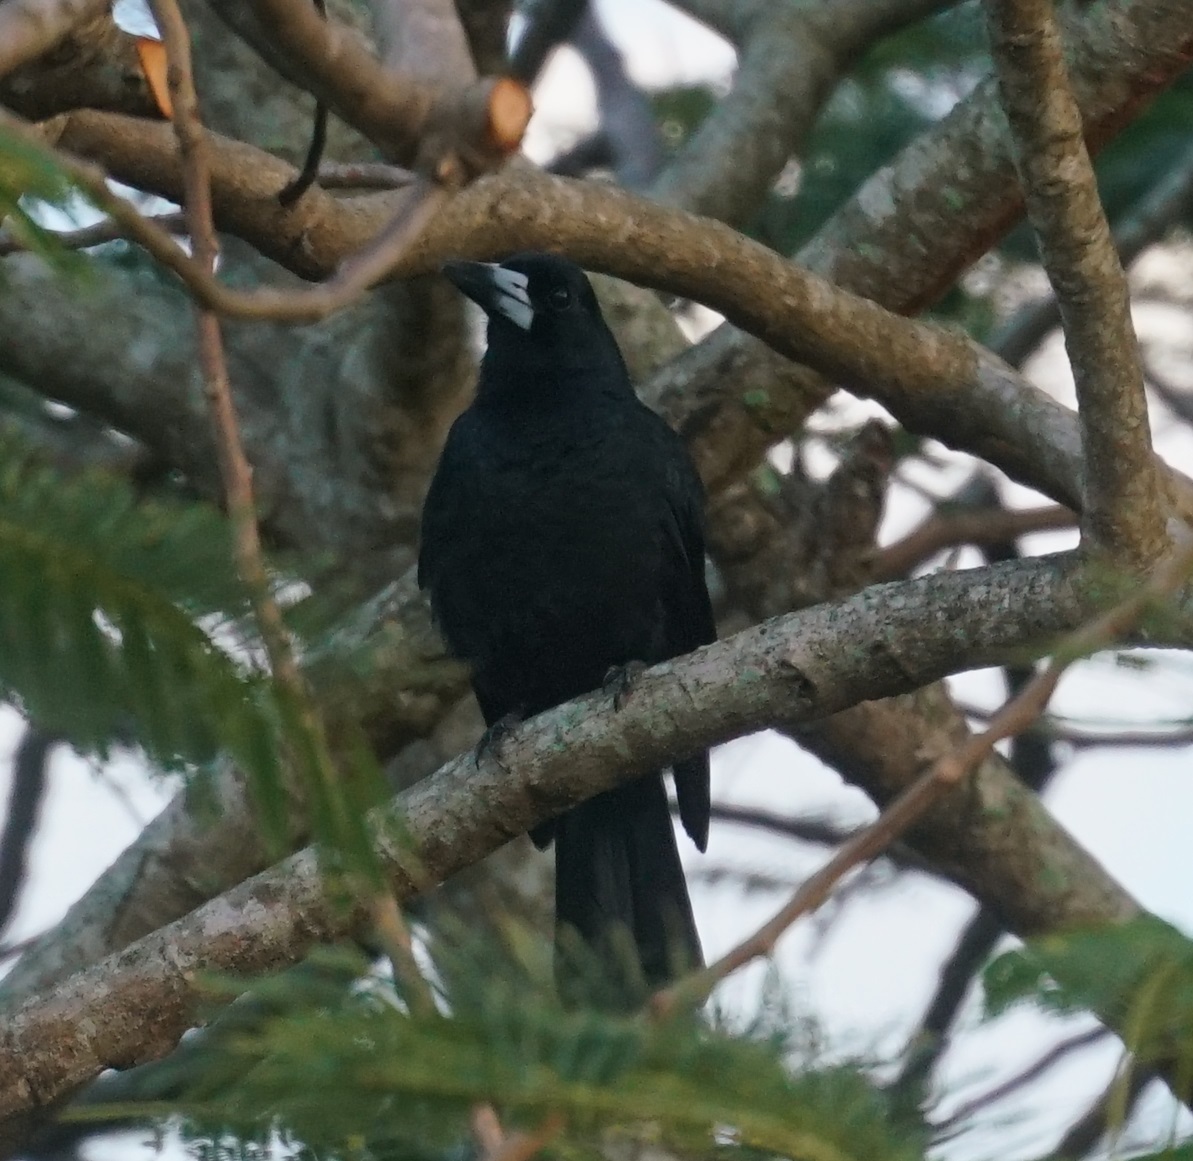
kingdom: Animalia
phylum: Chordata
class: Aves
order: Passeriformes
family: Artamidae
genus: Melloria
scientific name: Melloria quoyi
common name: Black butcherbird
